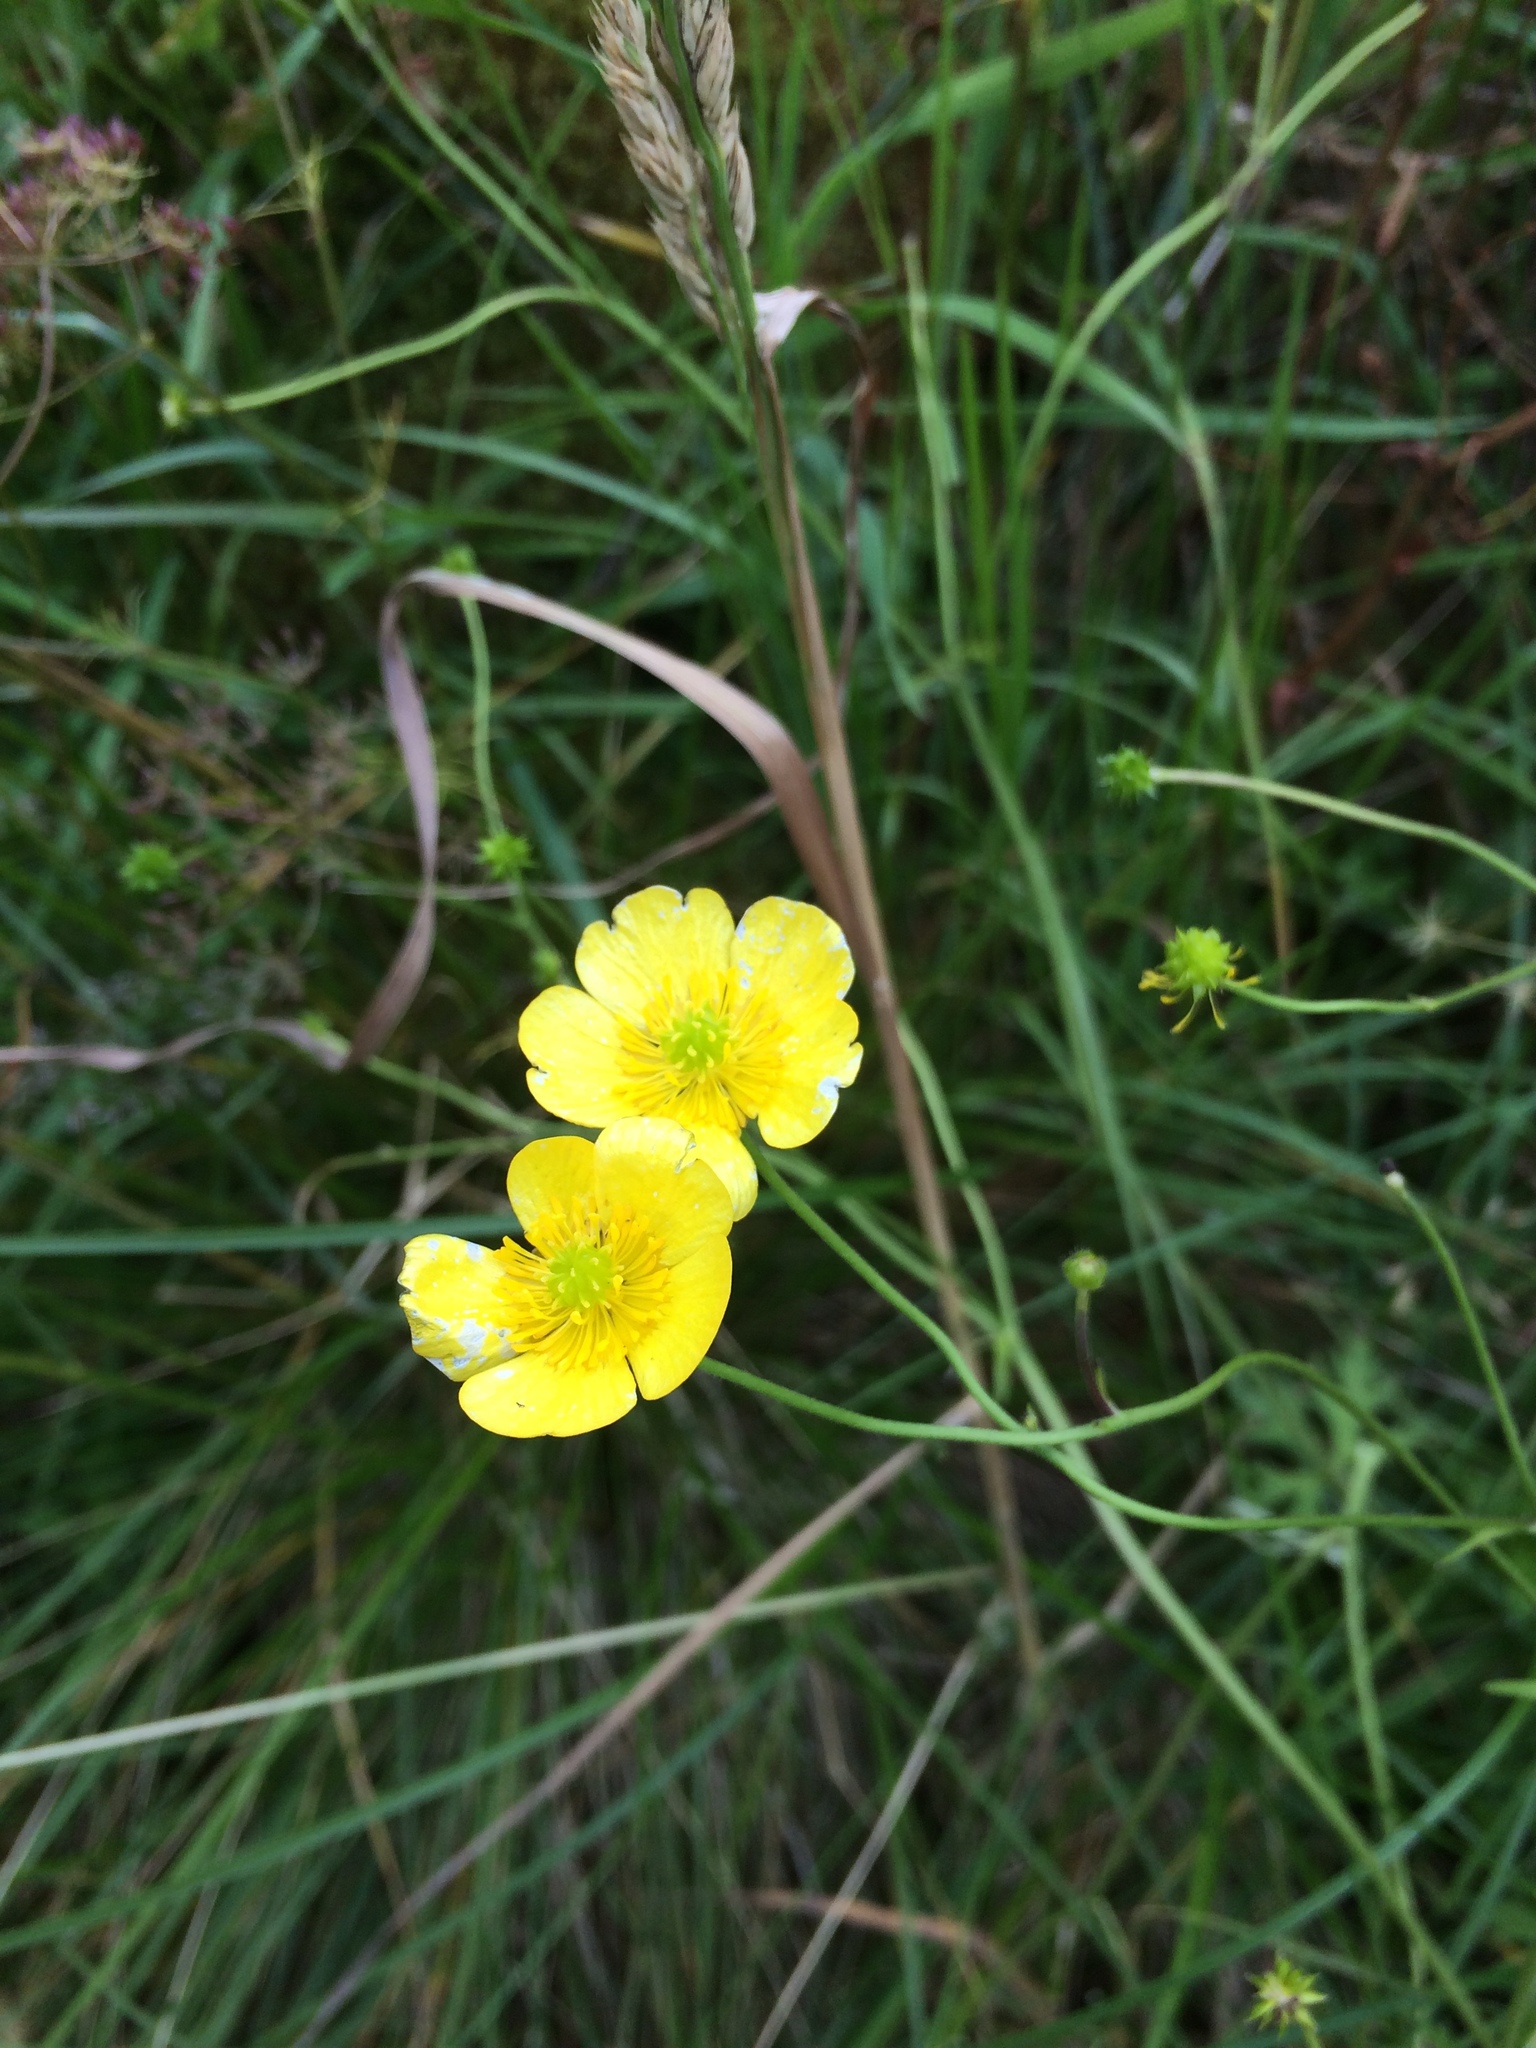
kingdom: Plantae
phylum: Tracheophyta
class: Magnoliopsida
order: Ranunculales
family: Ranunculaceae
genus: Ranunculus
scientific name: Ranunculus acris
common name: Meadow buttercup
